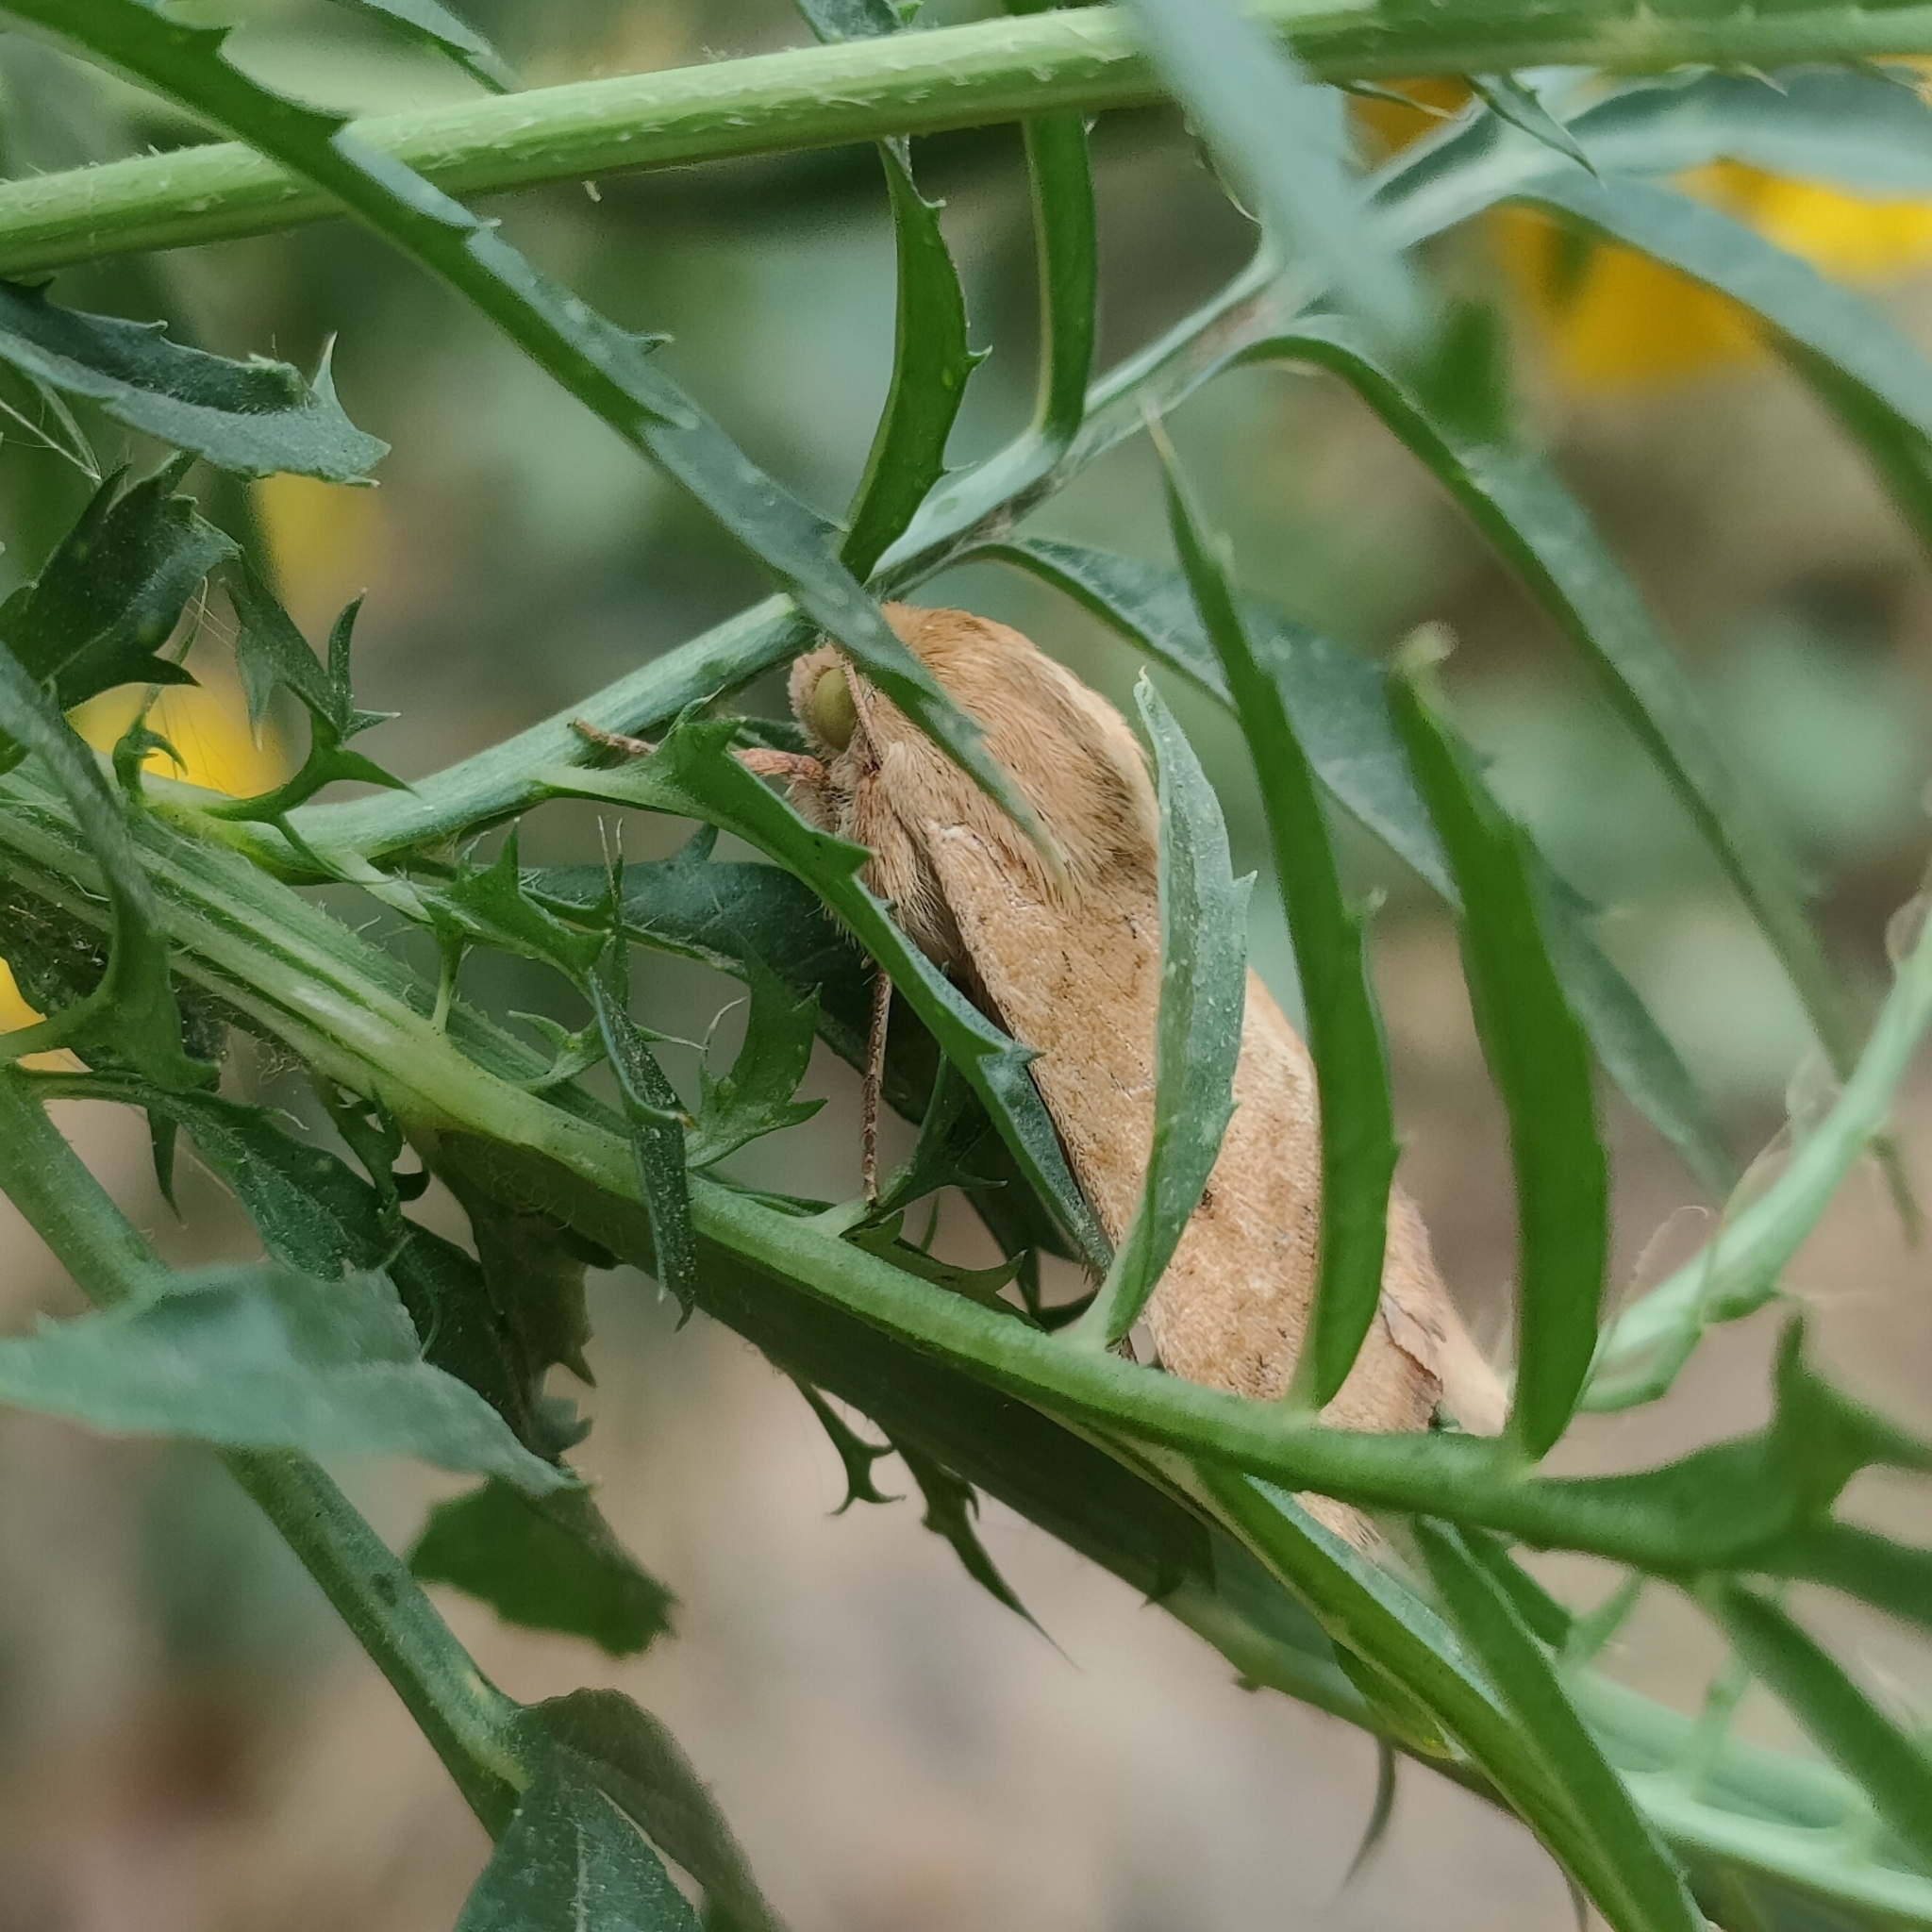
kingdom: Animalia
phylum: Arthropoda
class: Insecta
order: Lepidoptera
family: Noctuidae
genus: Helicoverpa
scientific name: Helicoverpa armigera
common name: Cotton bollworm
